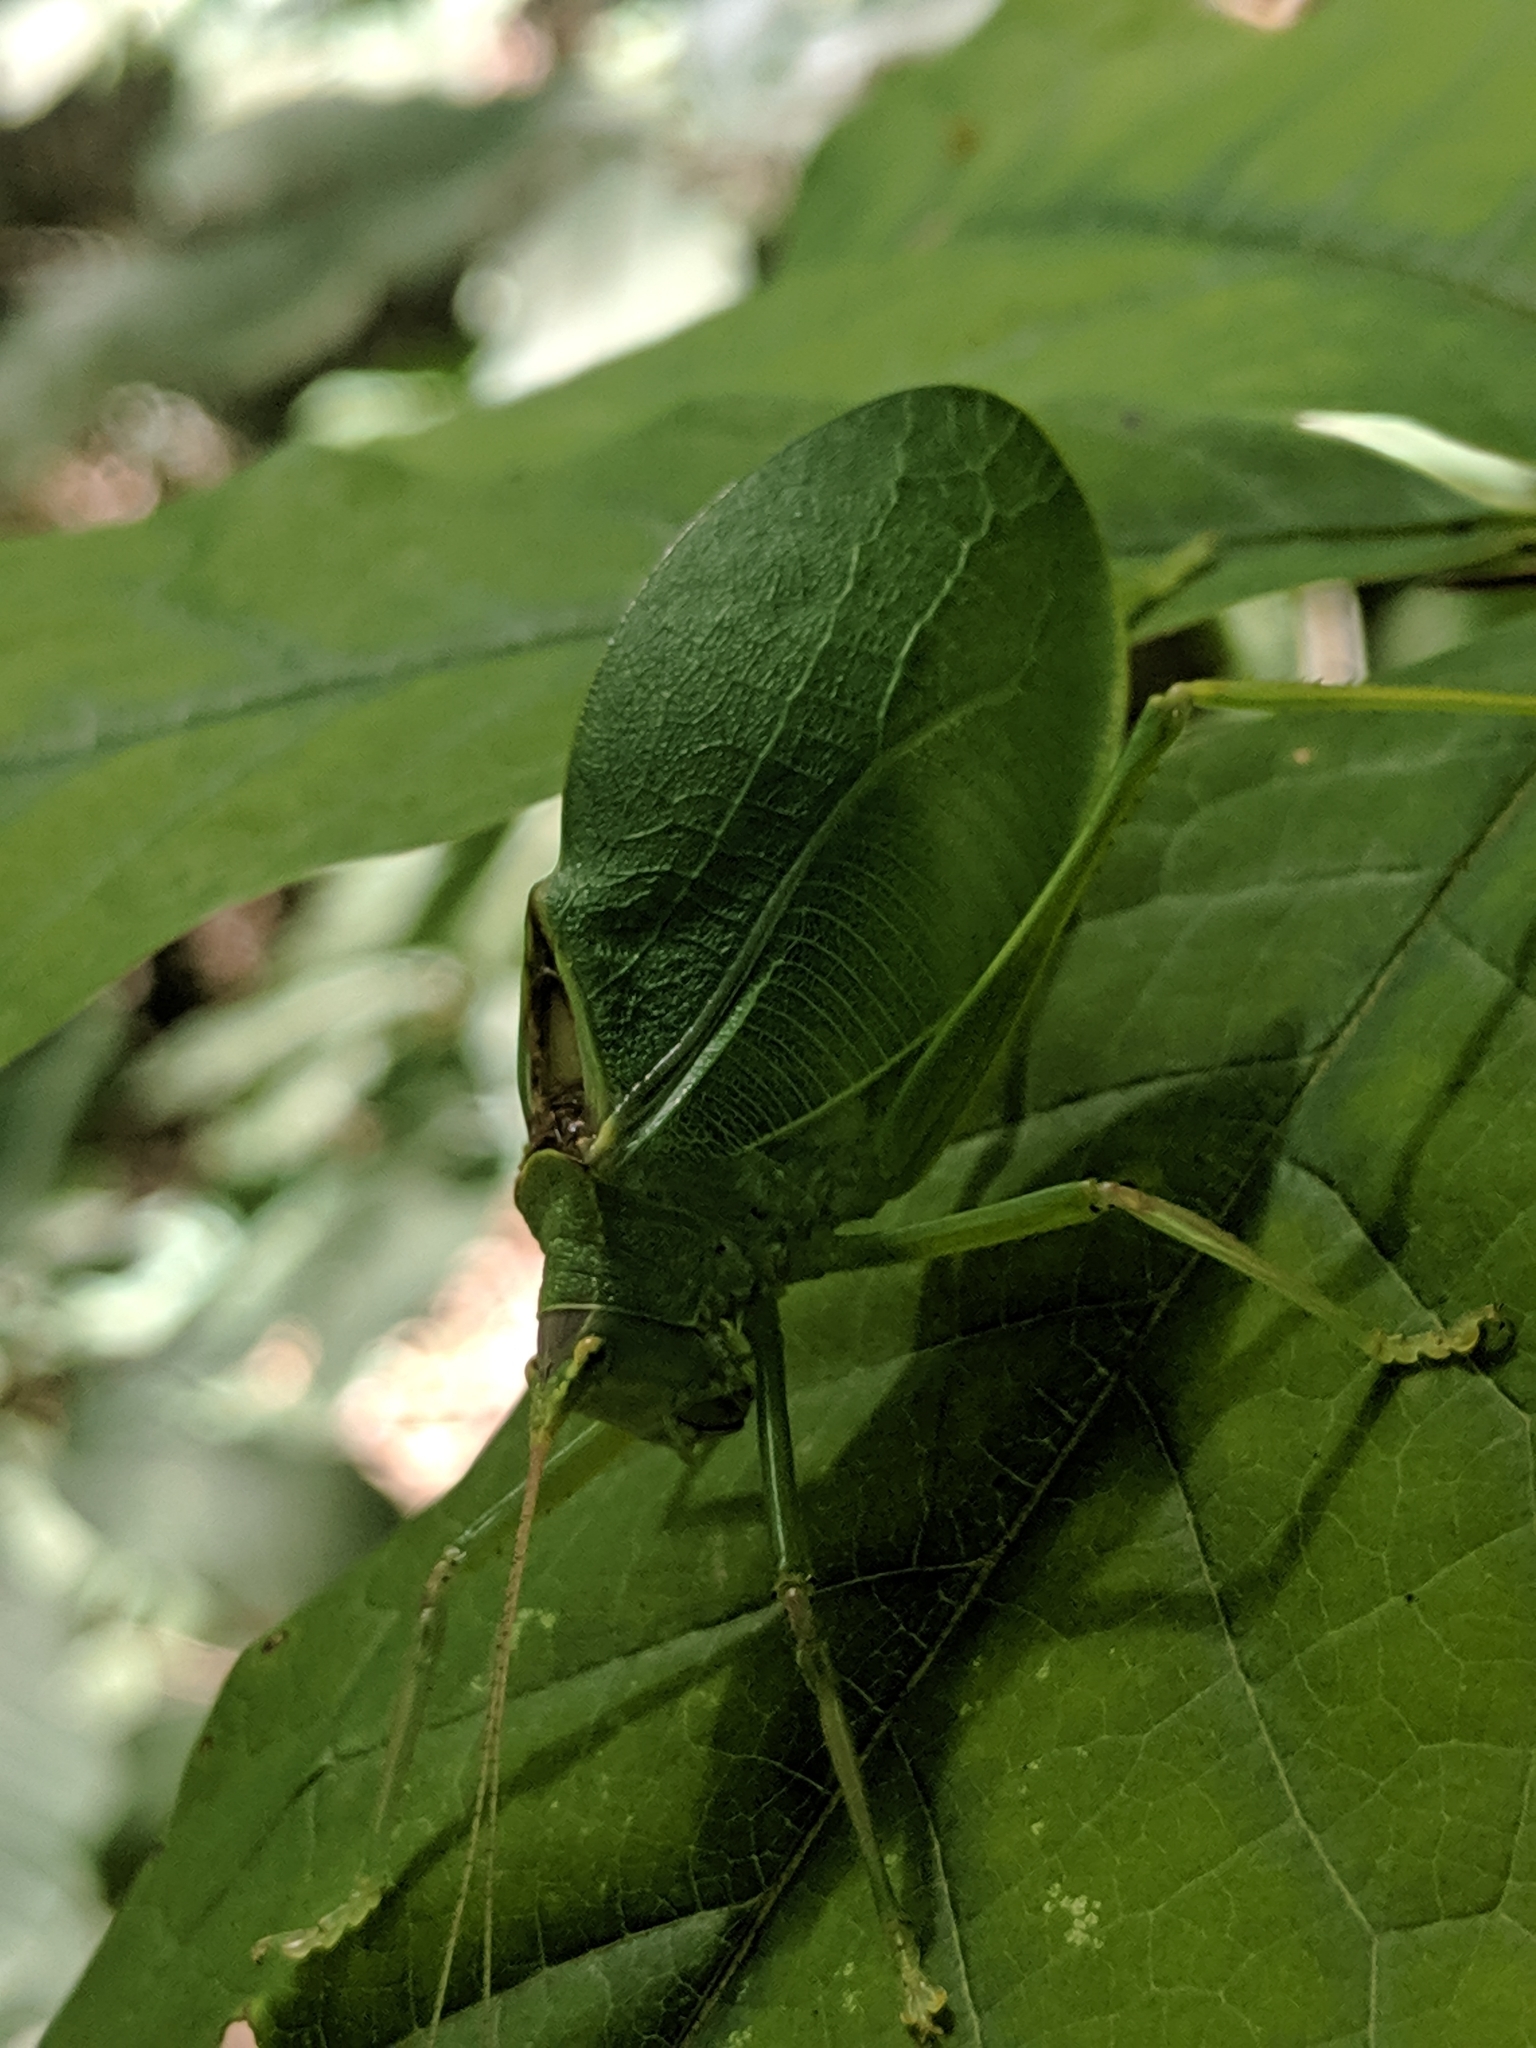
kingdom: Animalia
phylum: Arthropoda
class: Insecta
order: Orthoptera
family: Tettigoniidae
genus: Pterophylla
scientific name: Pterophylla camellifolia
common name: Common true katydid
